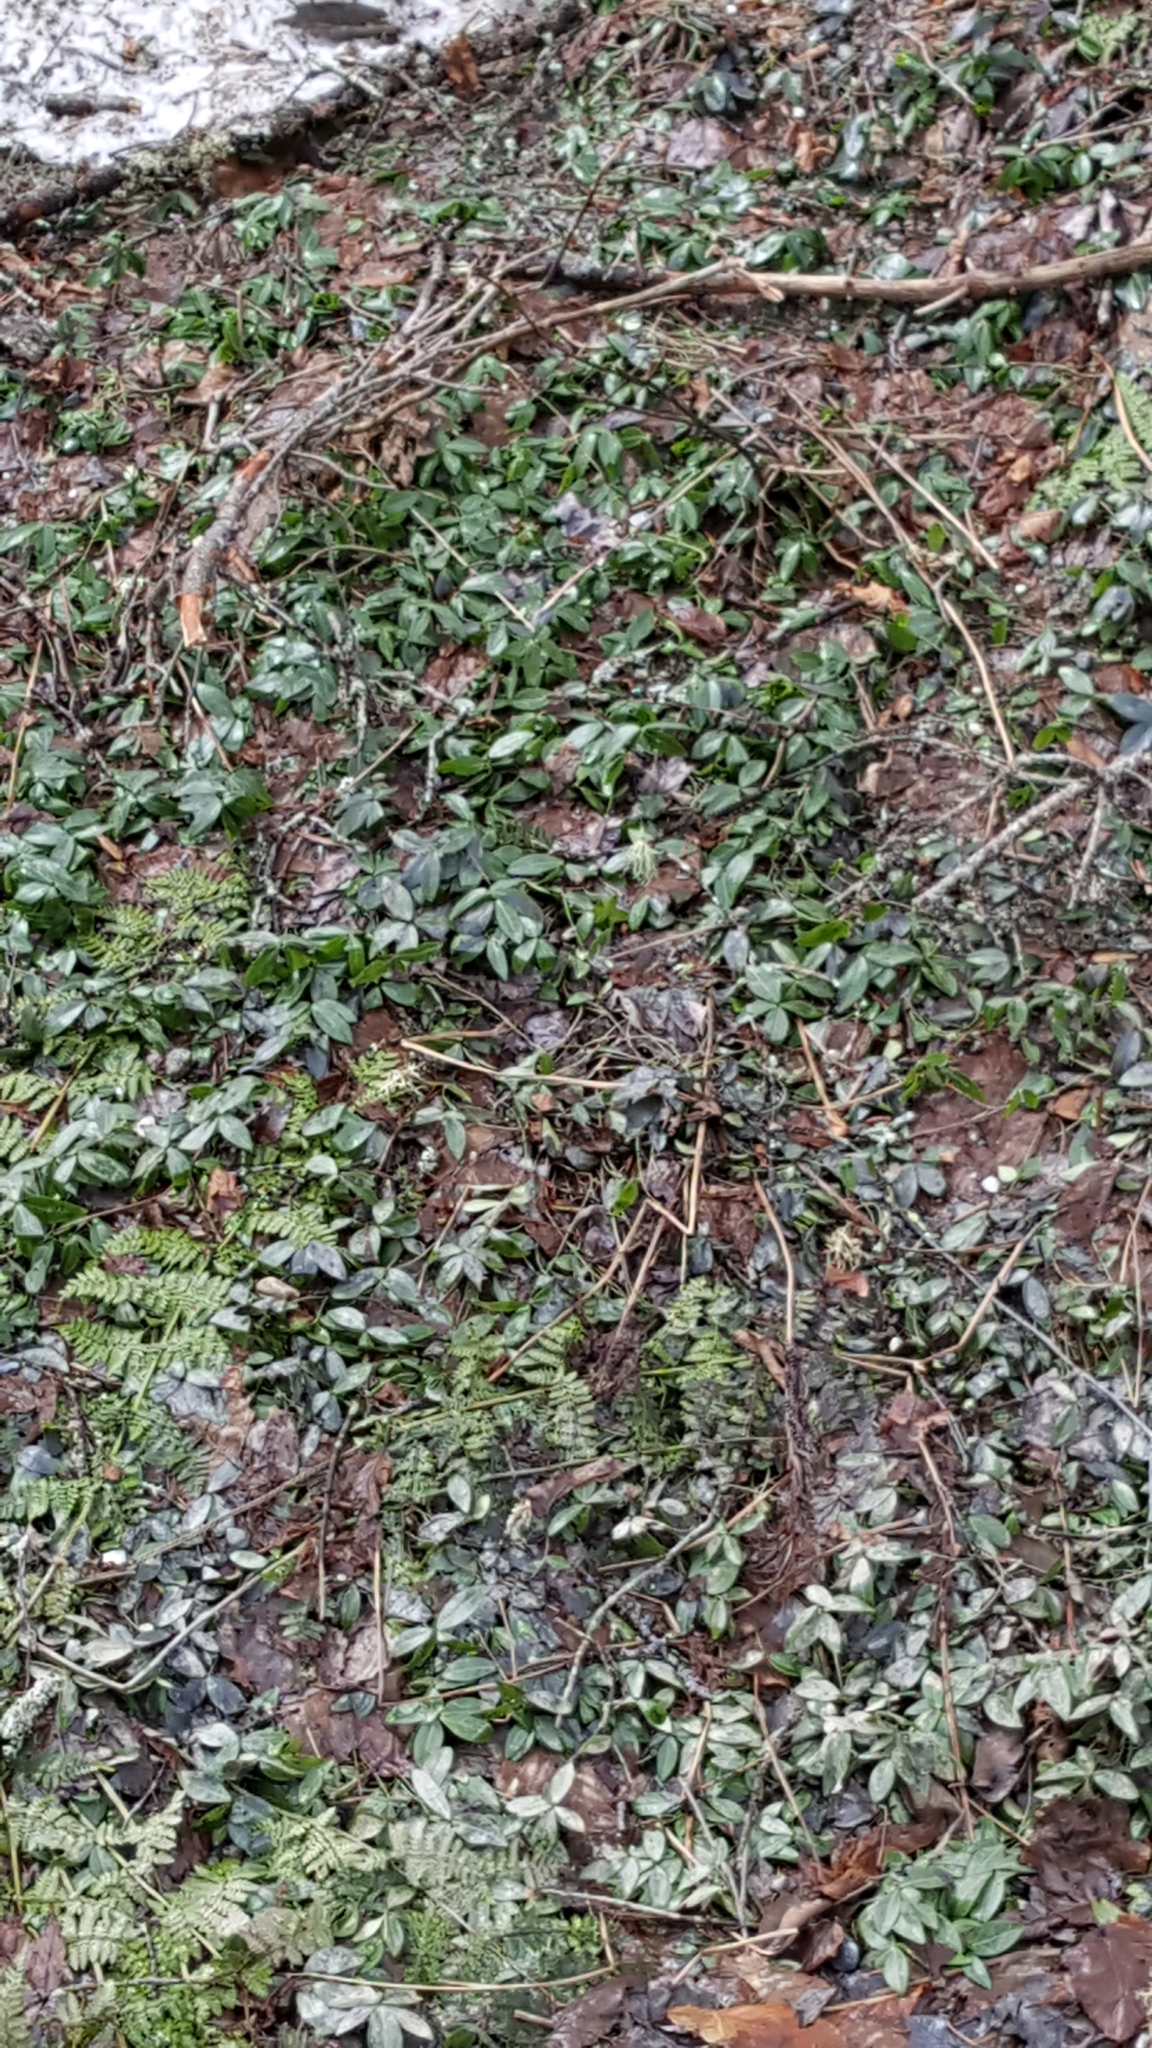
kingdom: Plantae
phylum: Tracheophyta
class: Magnoliopsida
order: Gentianales
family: Apocynaceae
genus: Vinca
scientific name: Vinca minor
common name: Lesser periwinkle
